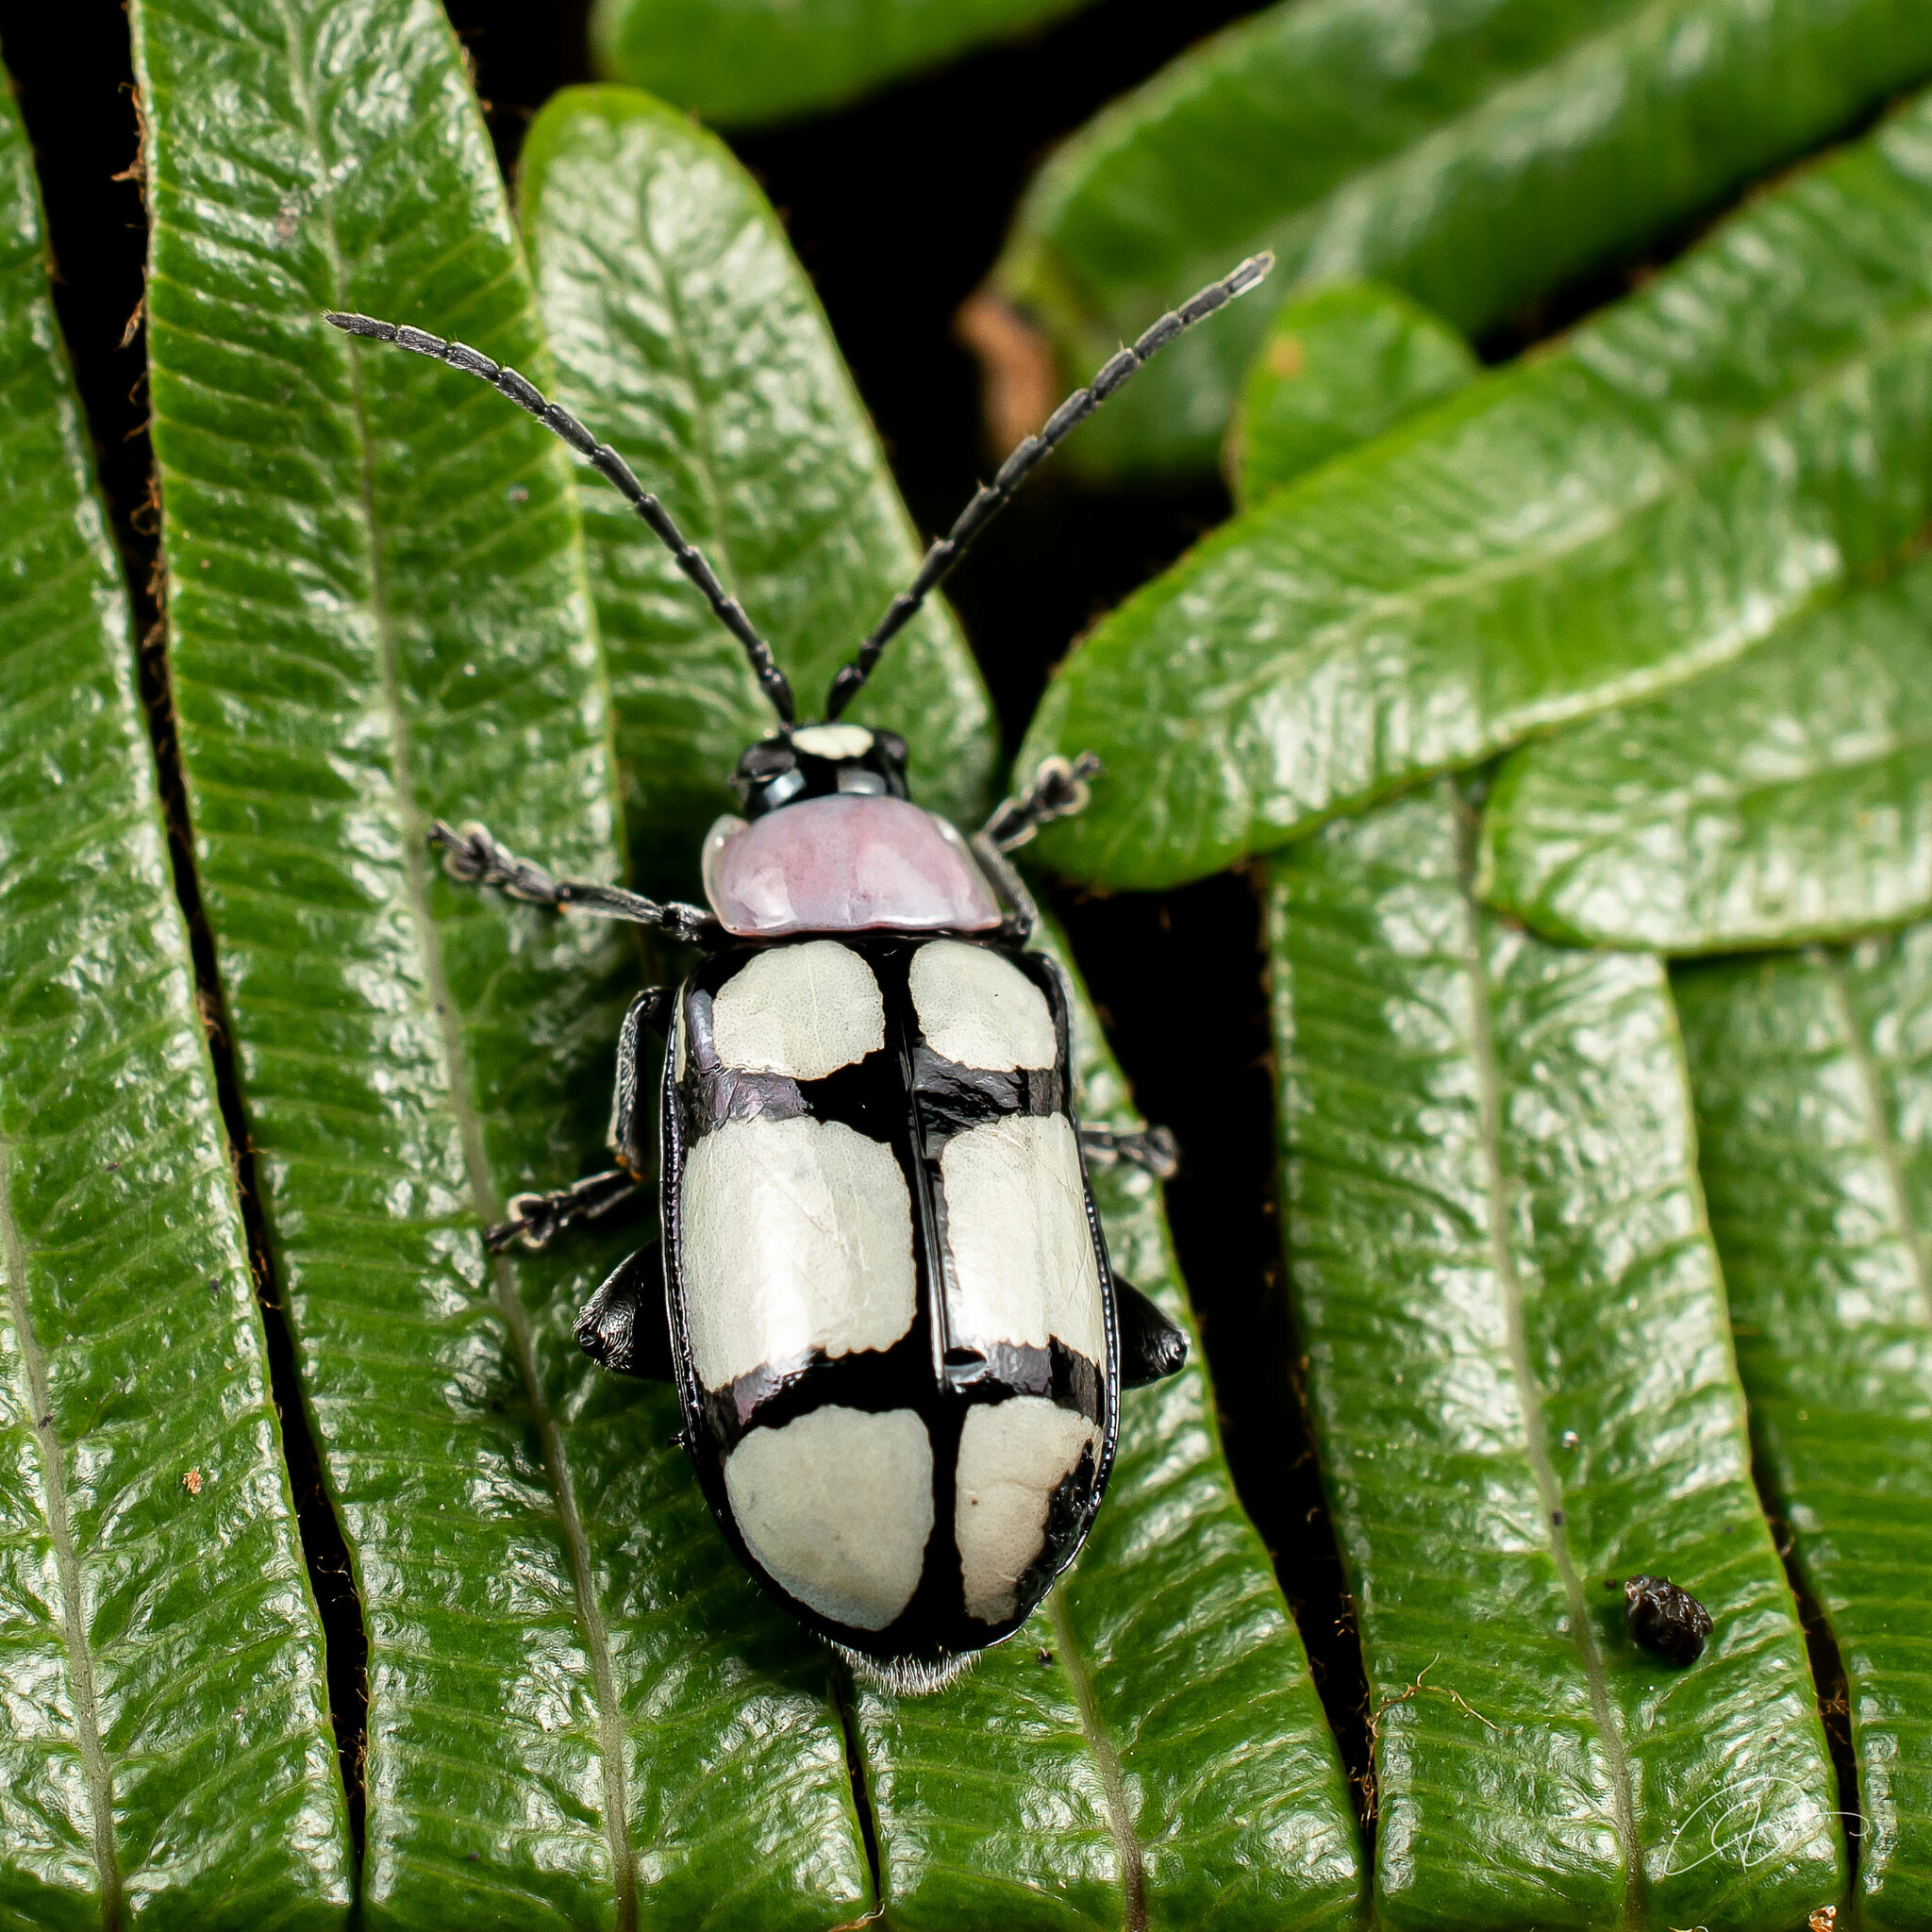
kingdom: Animalia
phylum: Arthropoda
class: Insecta
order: Coleoptera
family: Chrysomelidae
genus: Omophoita
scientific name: Omophoita
